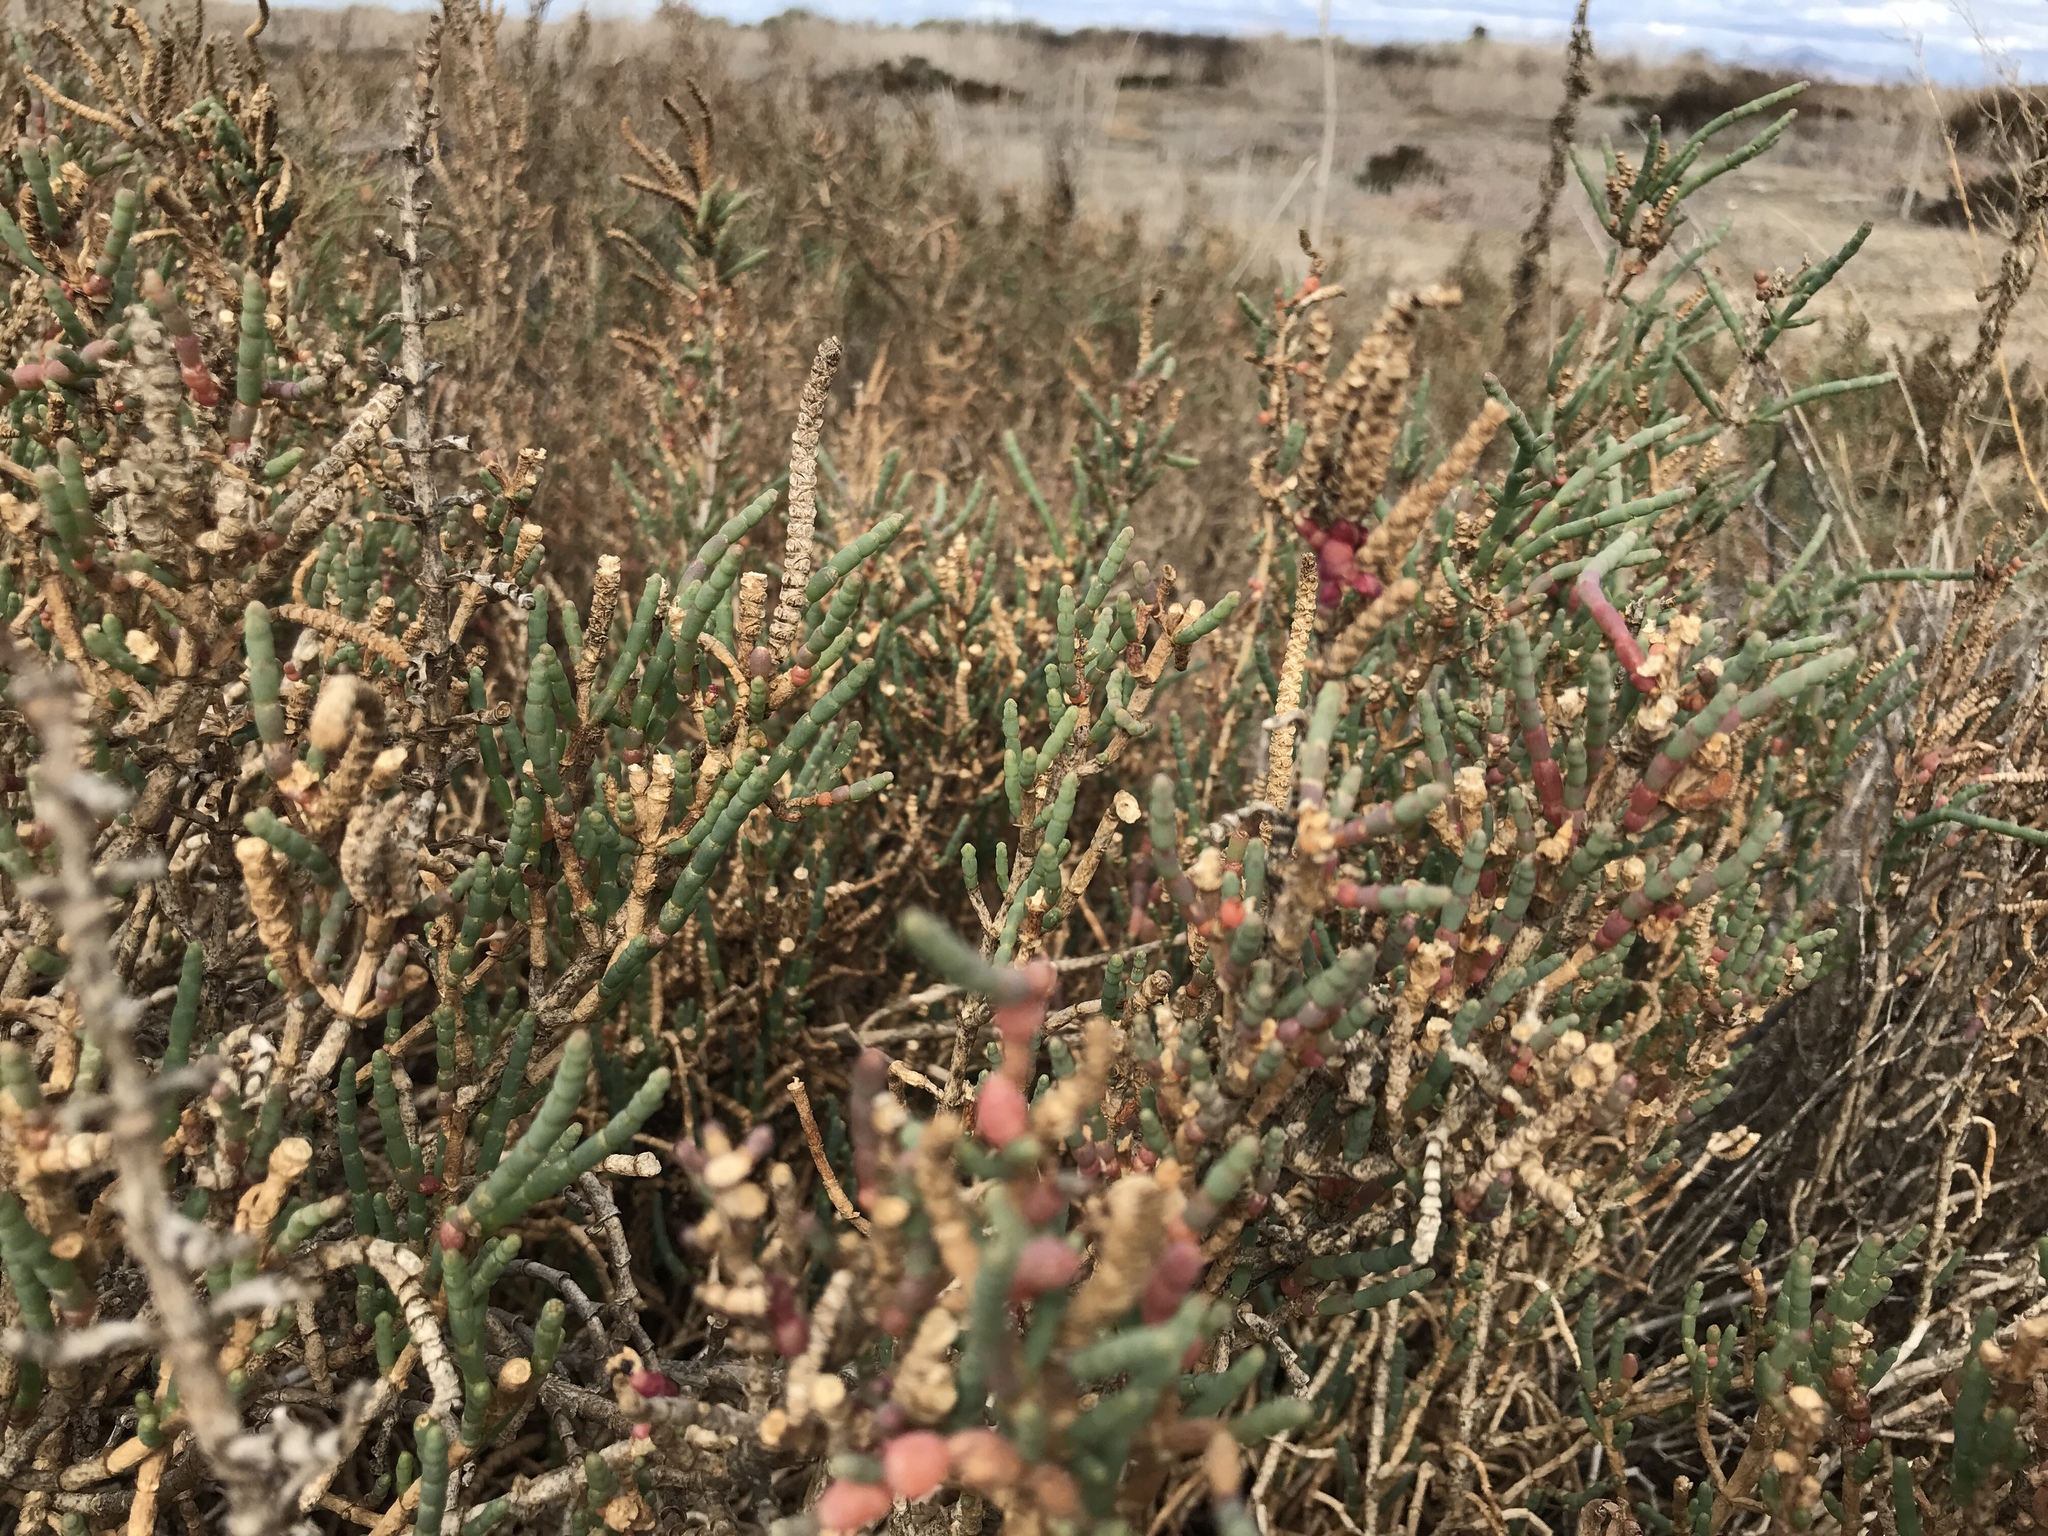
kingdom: Plantae
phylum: Tracheophyta
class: Magnoliopsida
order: Caryophyllales
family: Amaranthaceae
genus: Salicornia
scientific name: Salicornia pacifica
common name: Pacific glasswort
